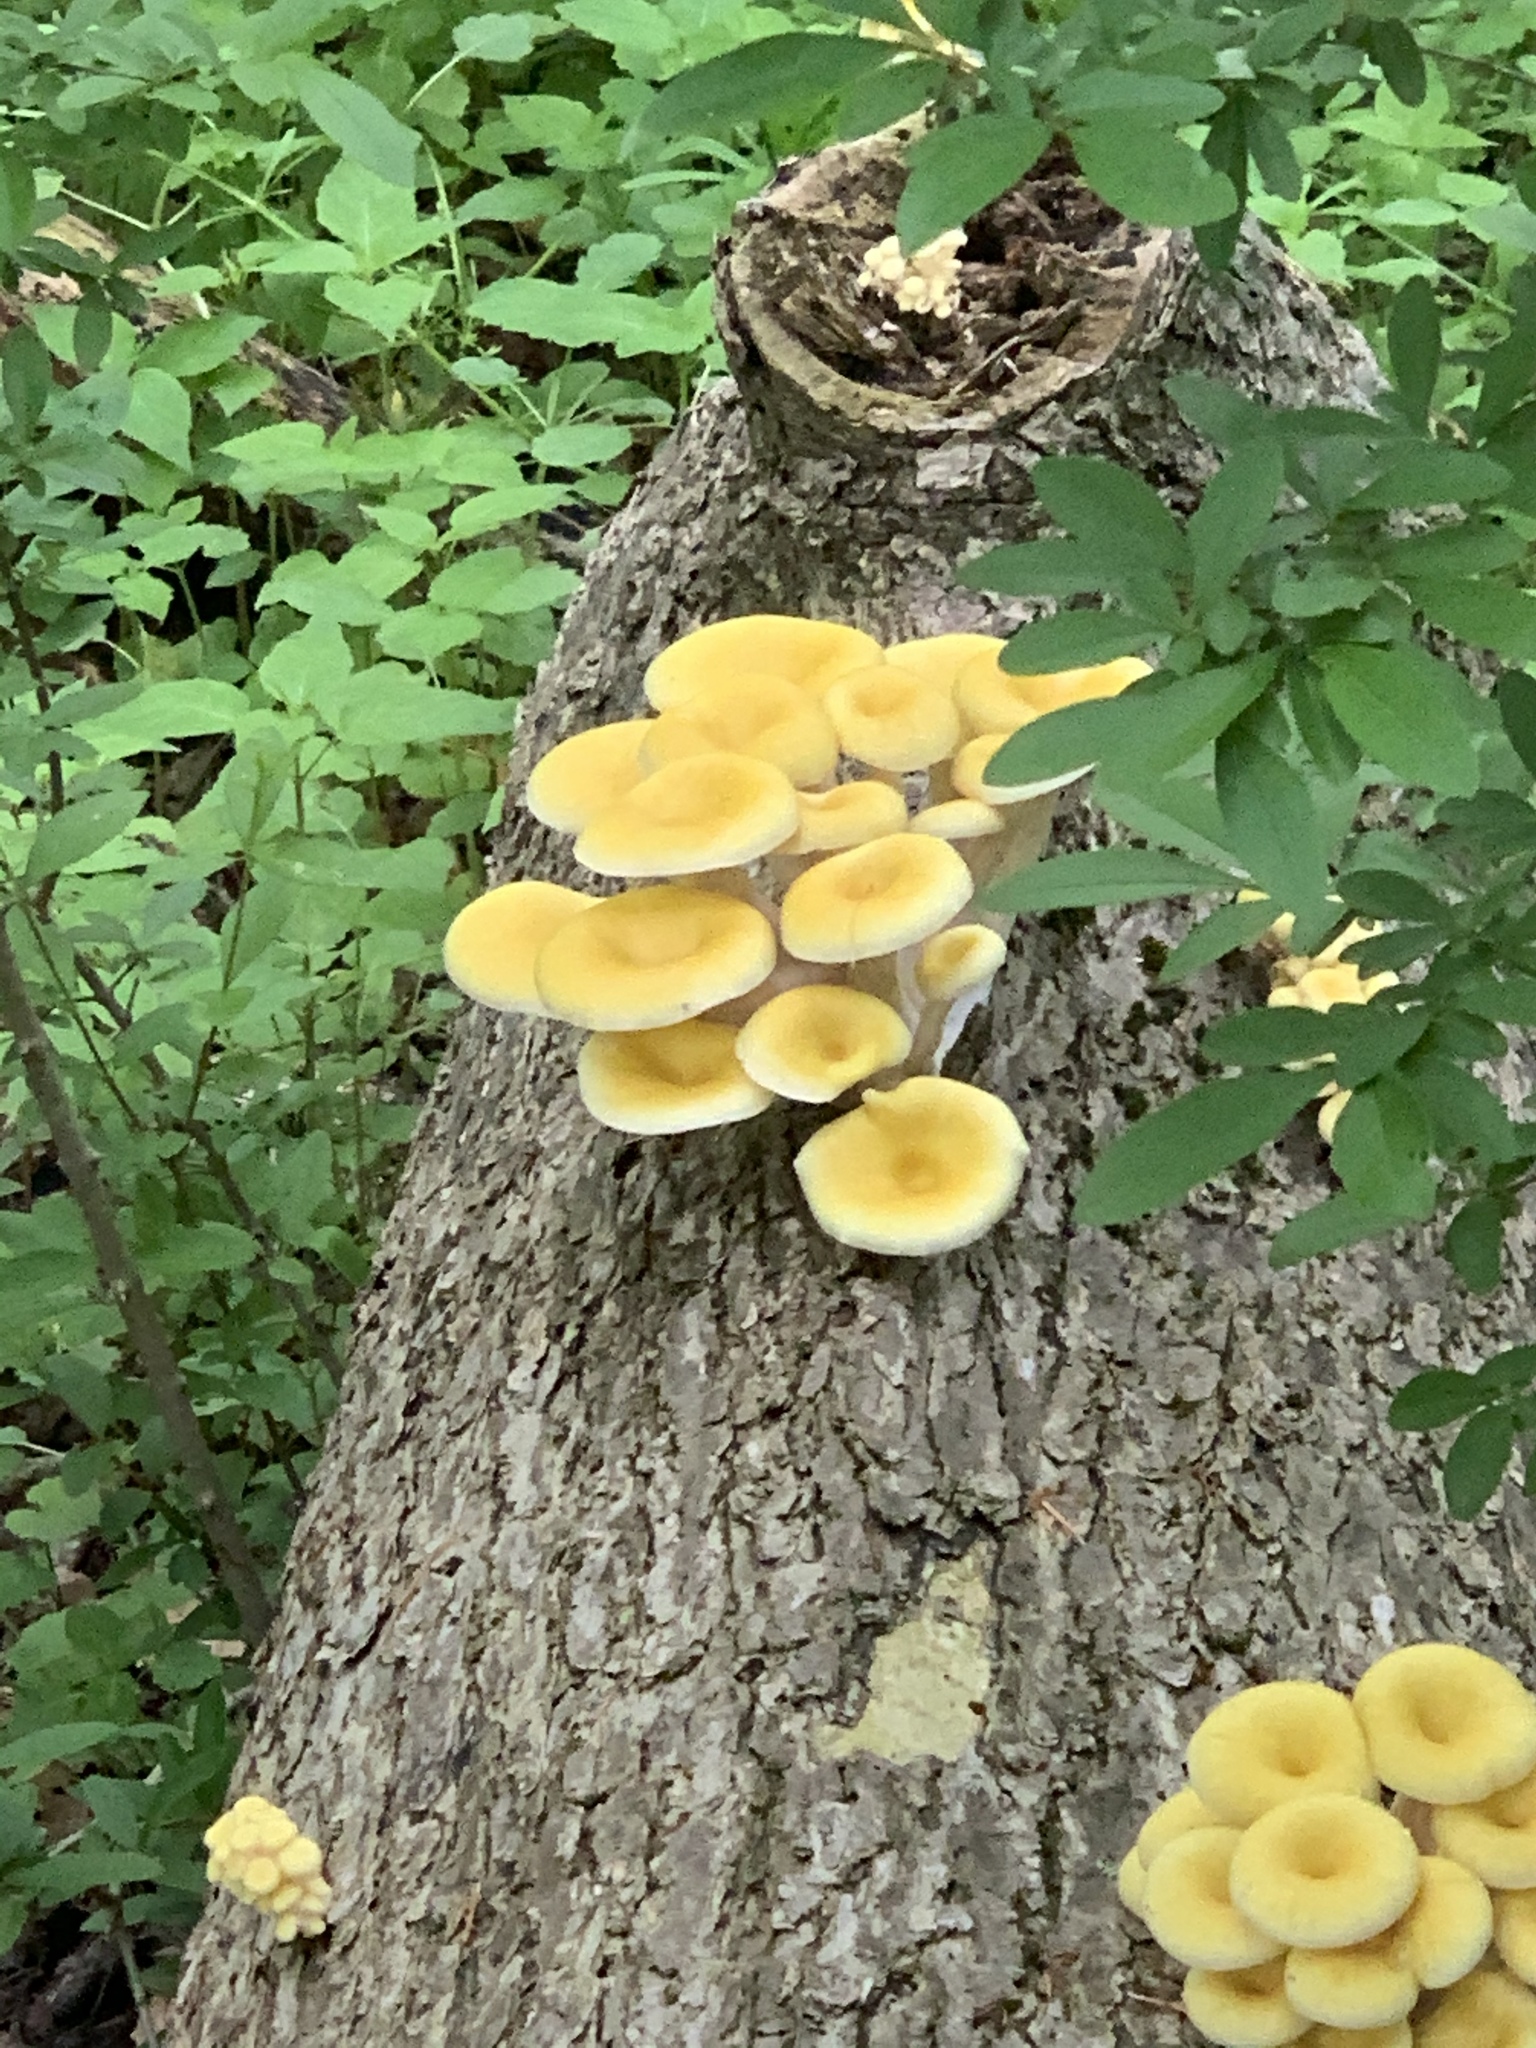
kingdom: Fungi
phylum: Basidiomycota
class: Agaricomycetes
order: Agaricales
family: Pleurotaceae
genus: Pleurotus
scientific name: Pleurotus citrinopileatus
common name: Golden oyster mushroom
